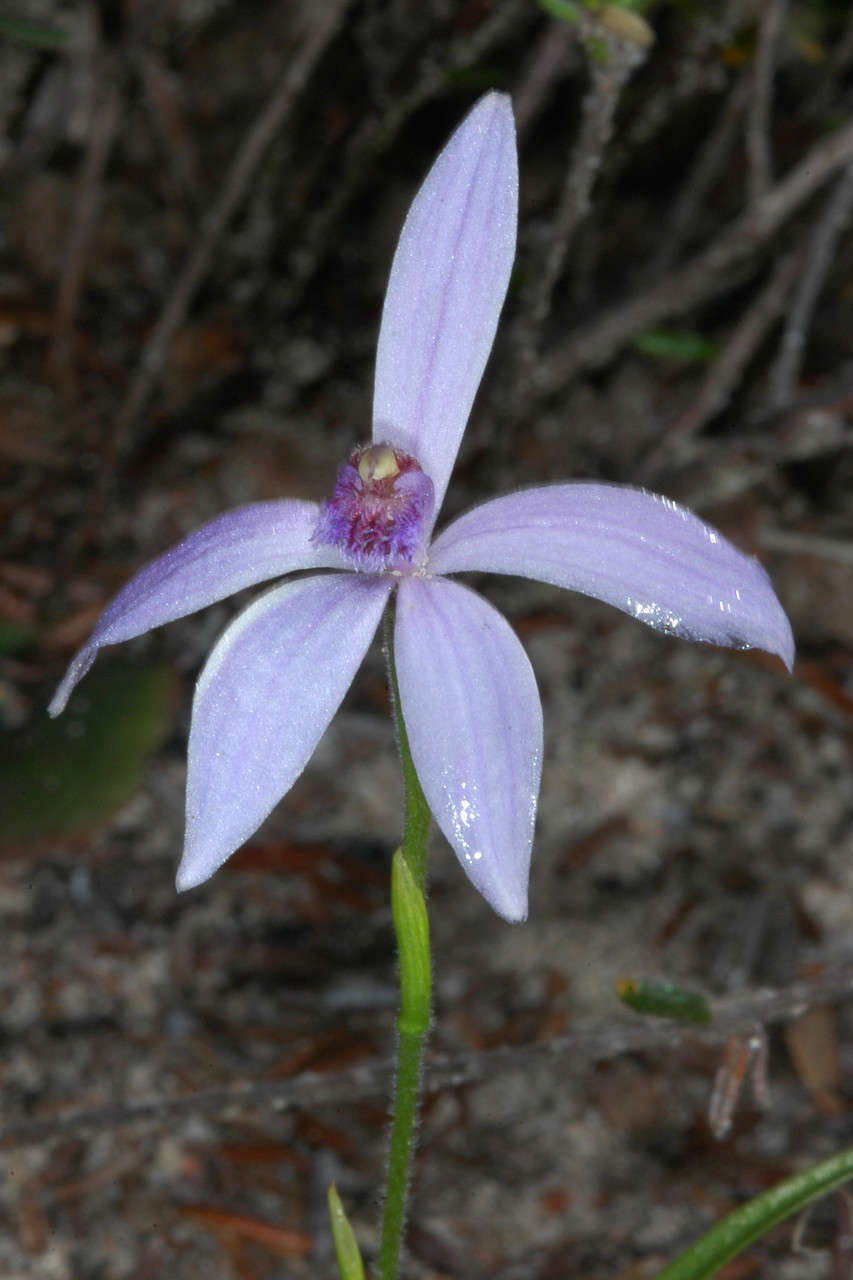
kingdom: Plantae
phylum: Tracheophyta
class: Liliopsida
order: Asparagales
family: Orchidaceae
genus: Pheladenia
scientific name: Pheladenia deformis
